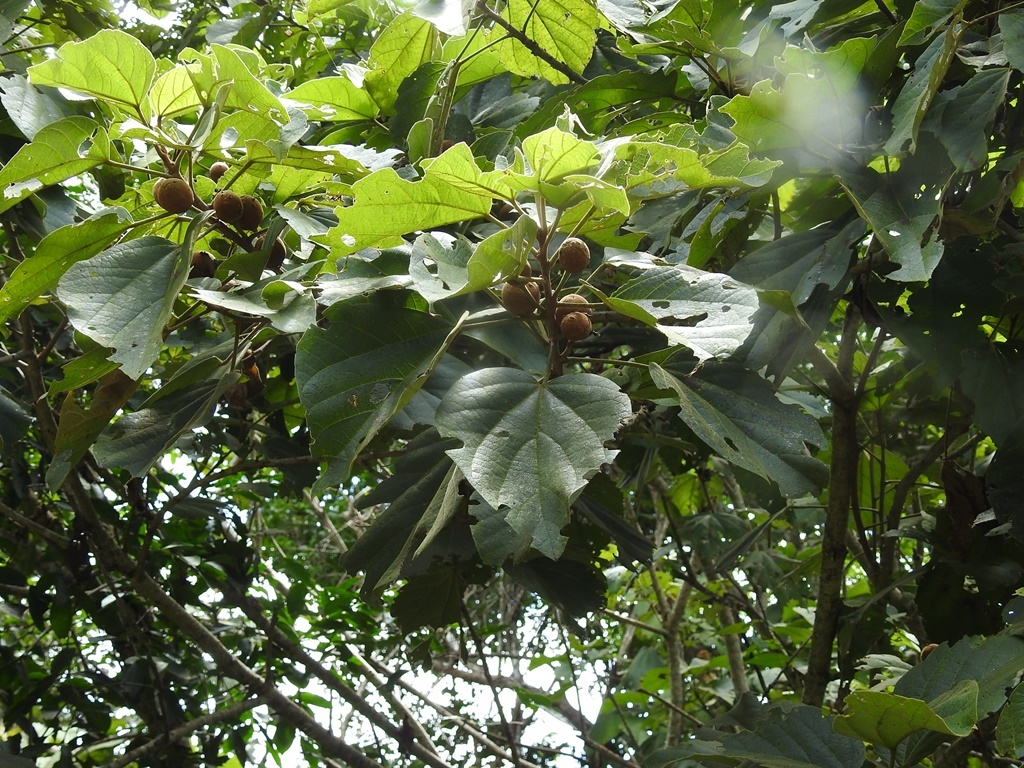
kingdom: Plantae
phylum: Tracheophyta
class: Magnoliopsida
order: Malvales
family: Malvaceae
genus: Hampea
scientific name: Hampea mexicana
